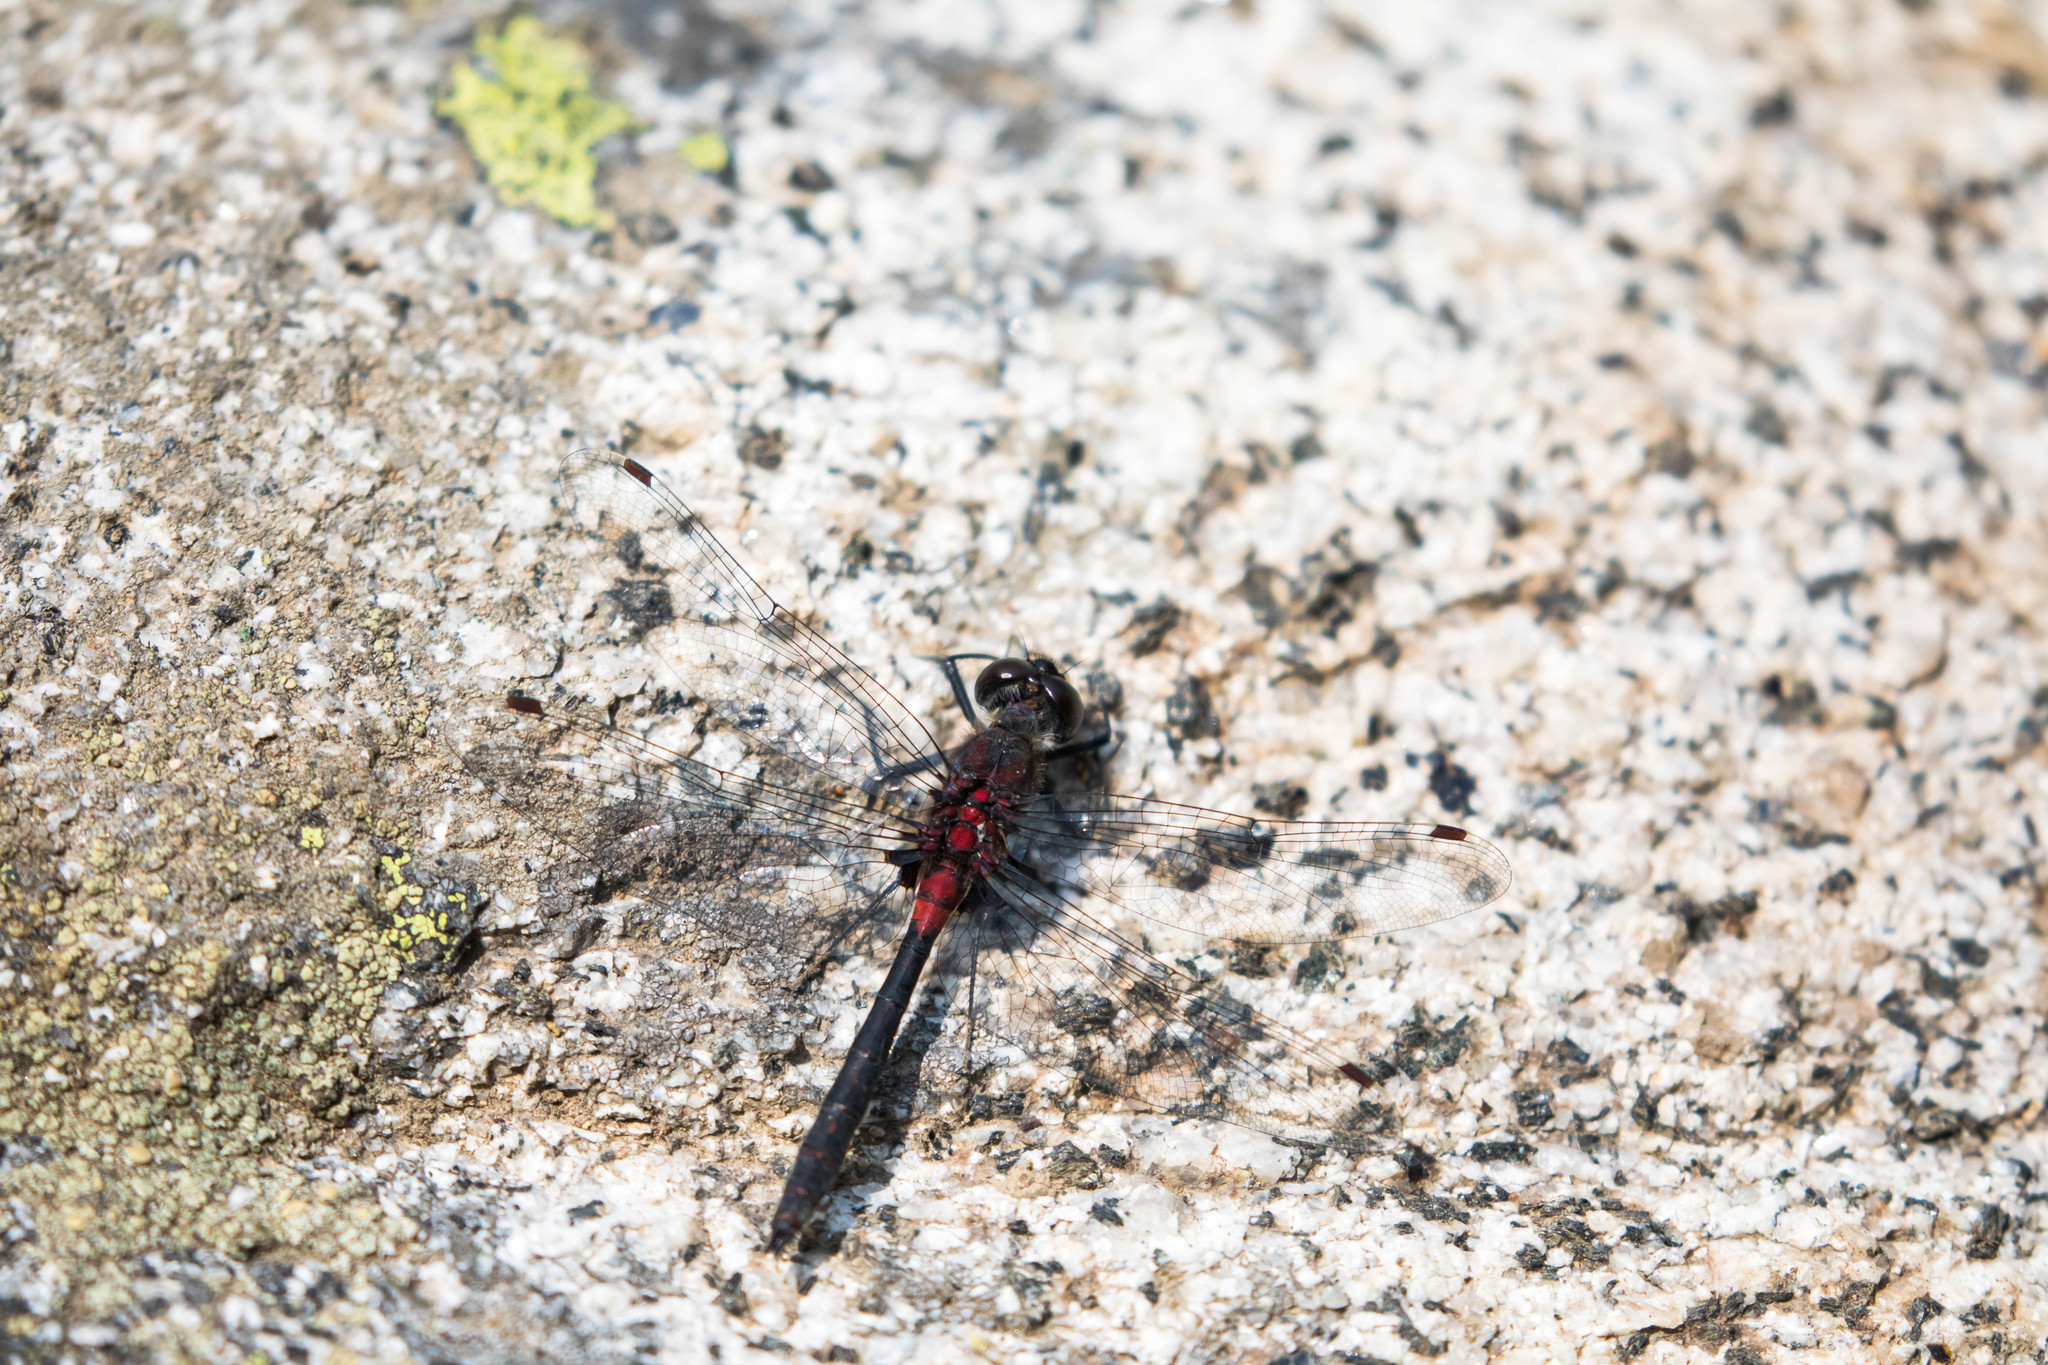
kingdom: Animalia
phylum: Arthropoda
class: Insecta
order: Odonata
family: Libellulidae
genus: Leucorrhinia
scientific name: Leucorrhinia proxima
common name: Belted whiteface
